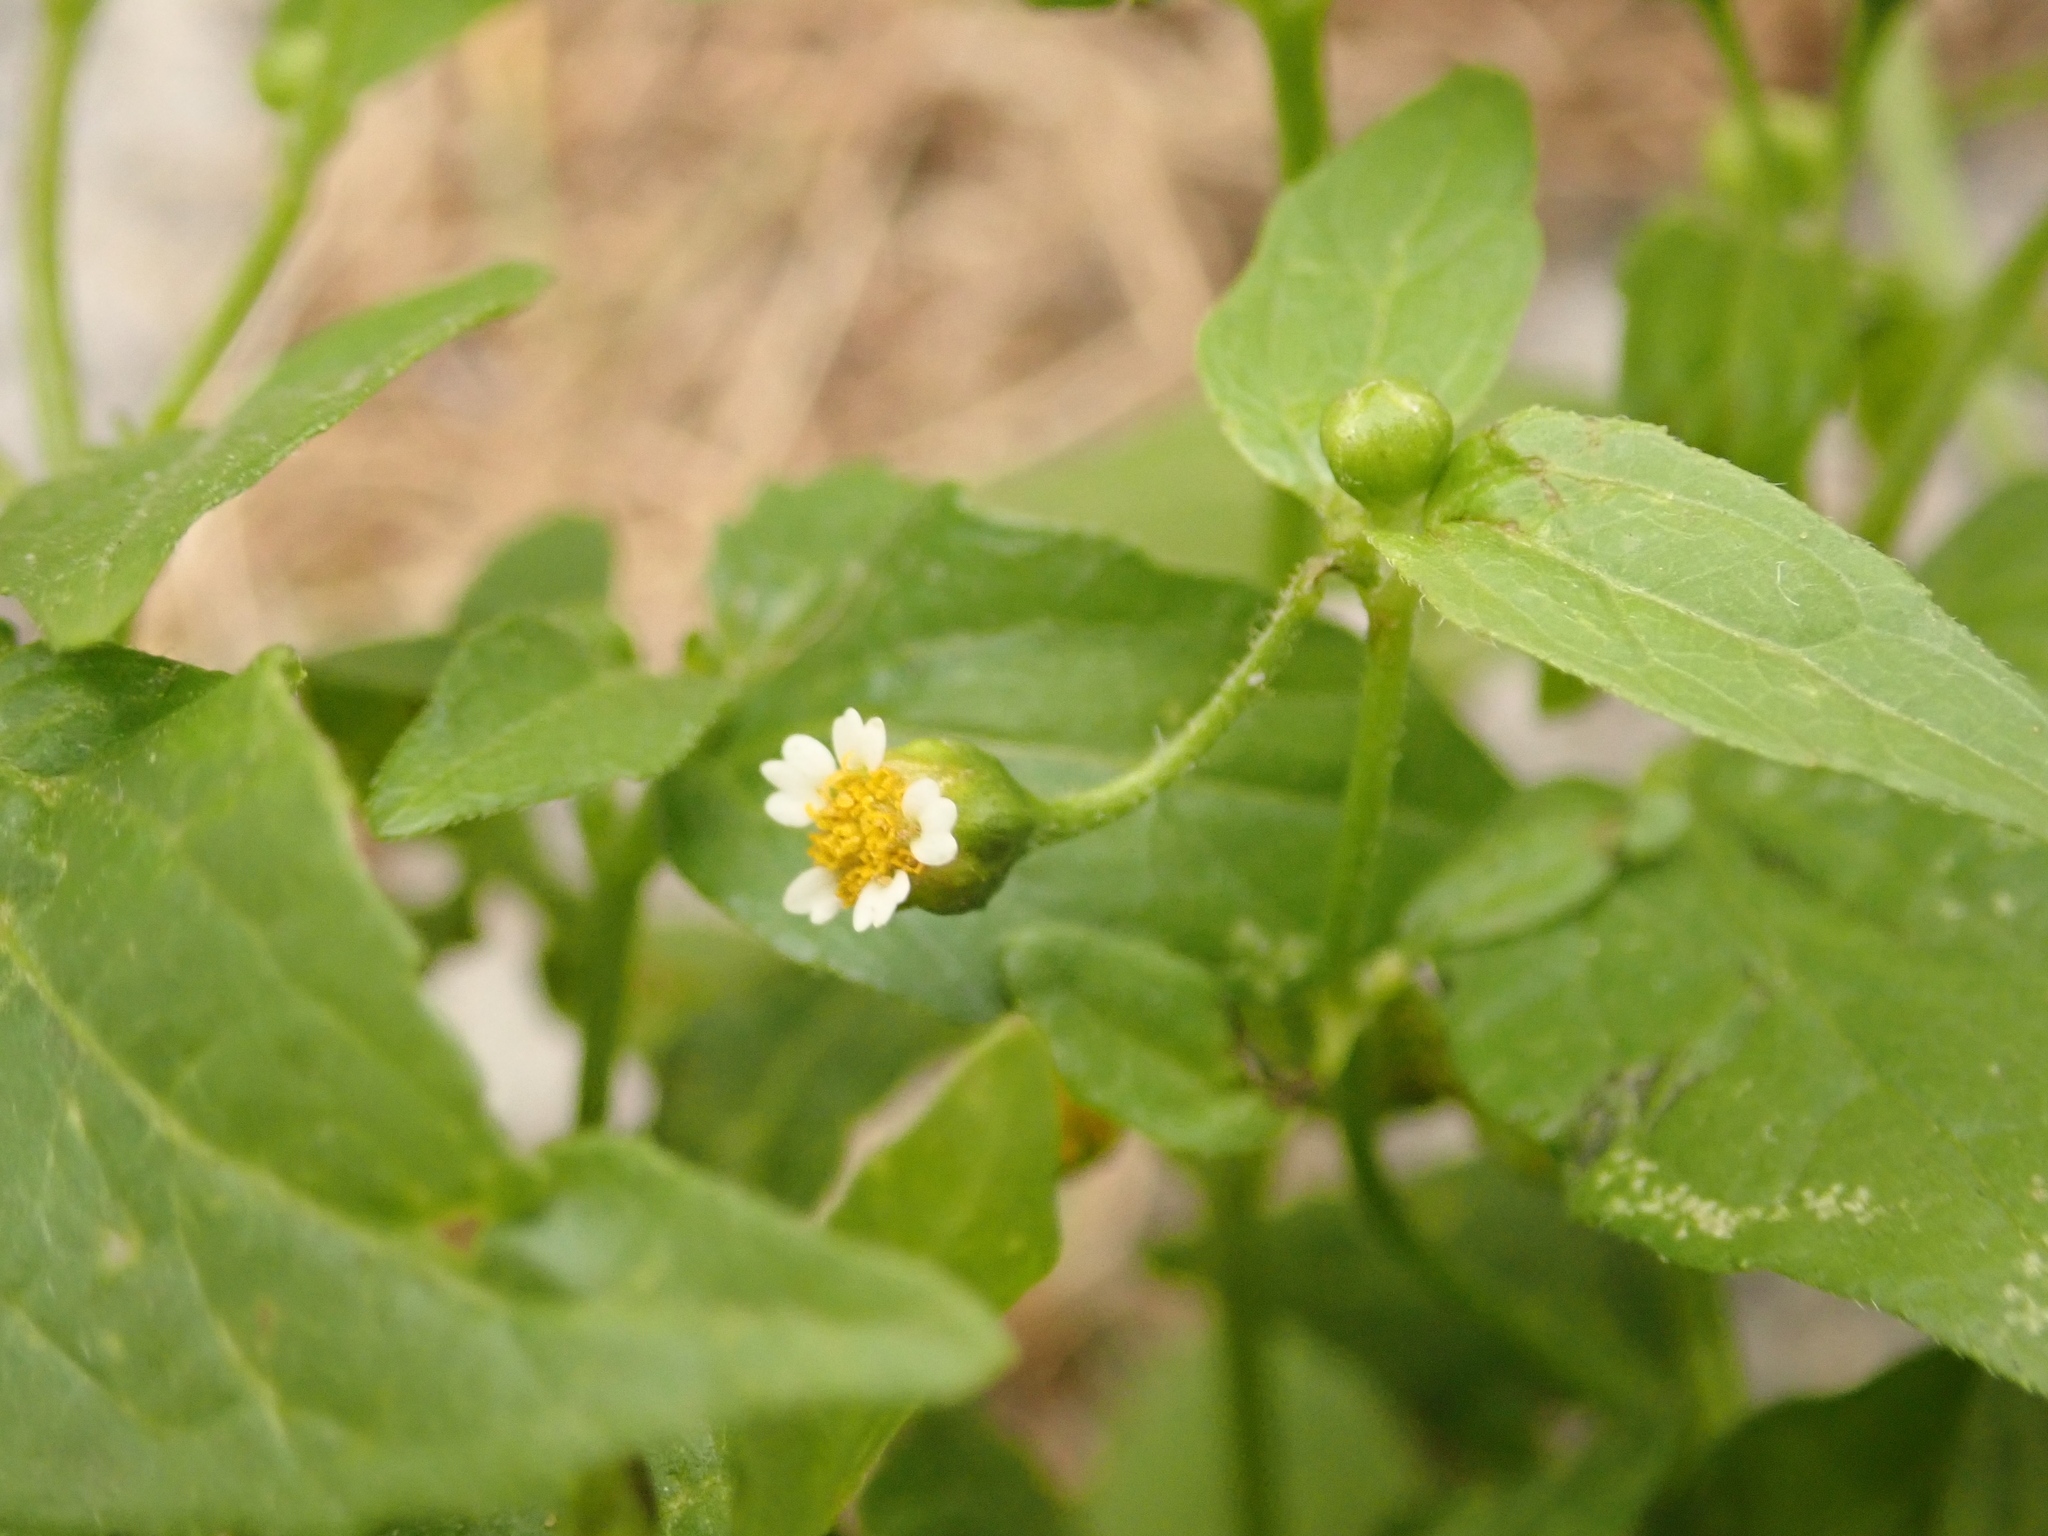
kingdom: Plantae
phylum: Tracheophyta
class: Magnoliopsida
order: Asterales
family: Asteraceae
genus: Galinsoga
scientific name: Galinsoga quadriradiata
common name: Shaggy soldier
